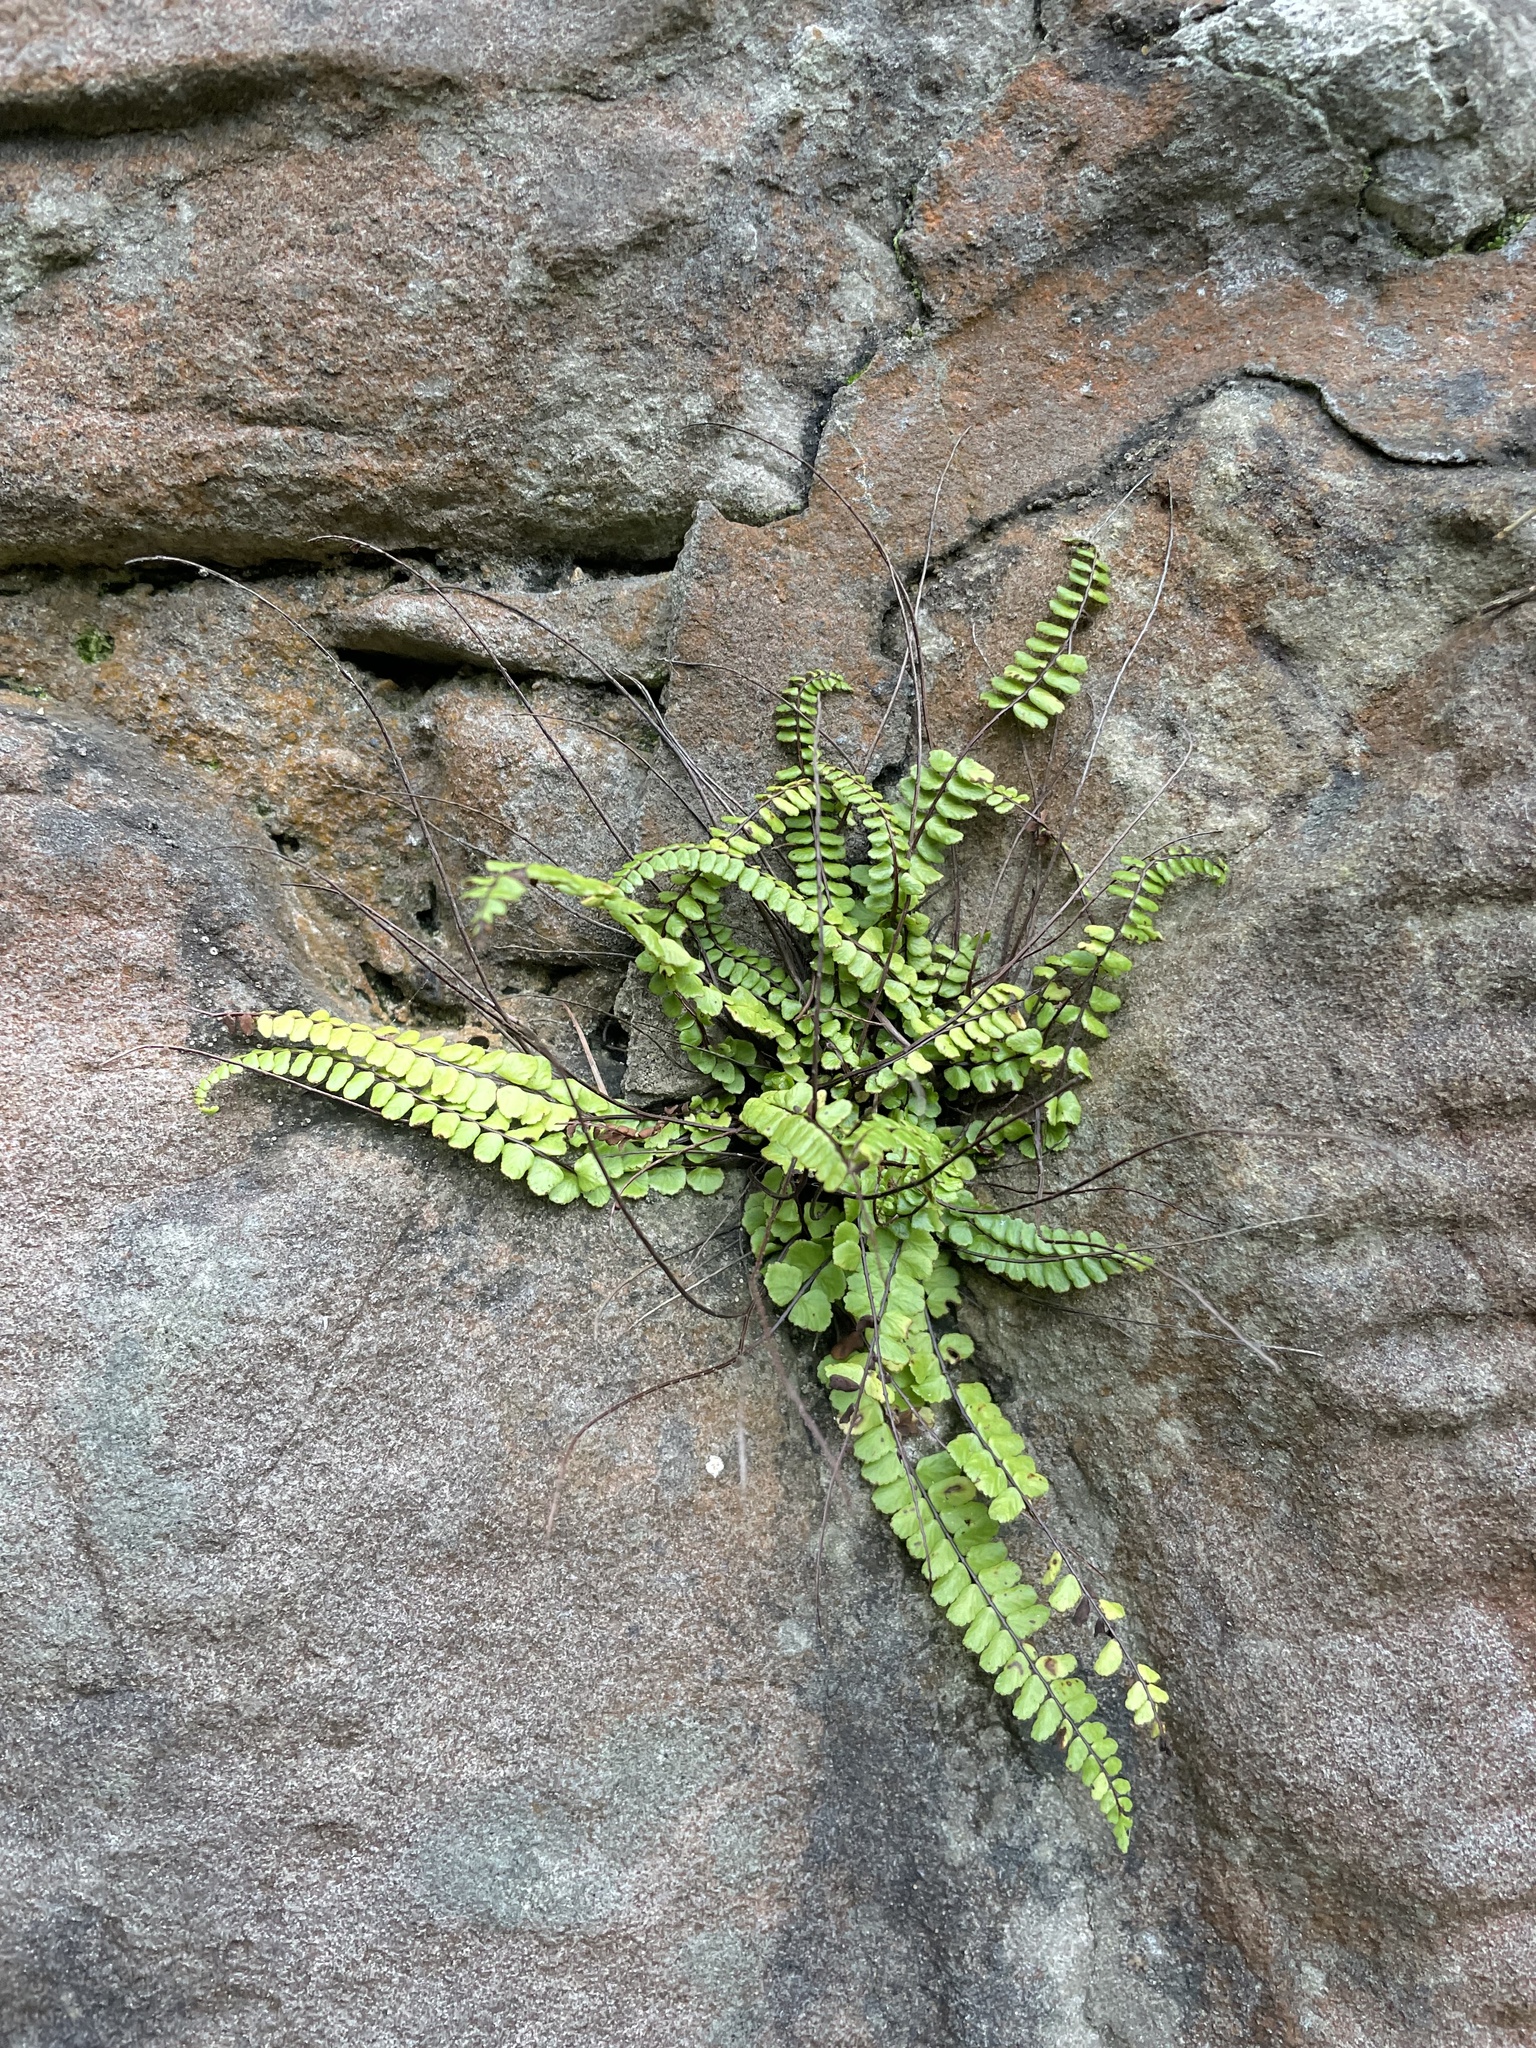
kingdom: Plantae
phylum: Tracheophyta
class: Polypodiopsida
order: Polypodiales
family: Aspleniaceae
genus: Asplenium
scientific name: Asplenium trichomanes
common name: Maidenhair spleenwort
